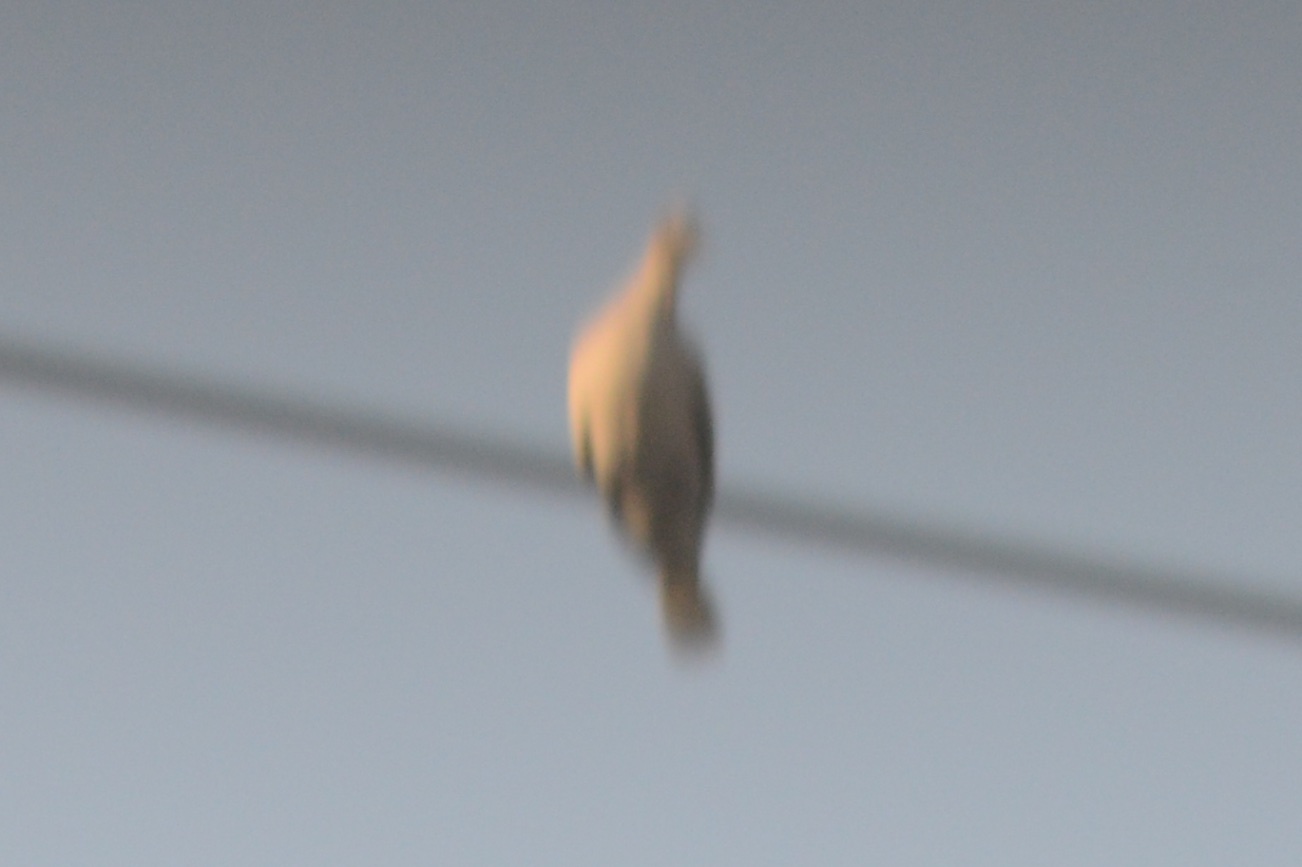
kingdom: Animalia
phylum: Chordata
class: Aves
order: Columbiformes
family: Columbidae
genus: Zenaida
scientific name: Zenaida macroura
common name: Mourning dove
